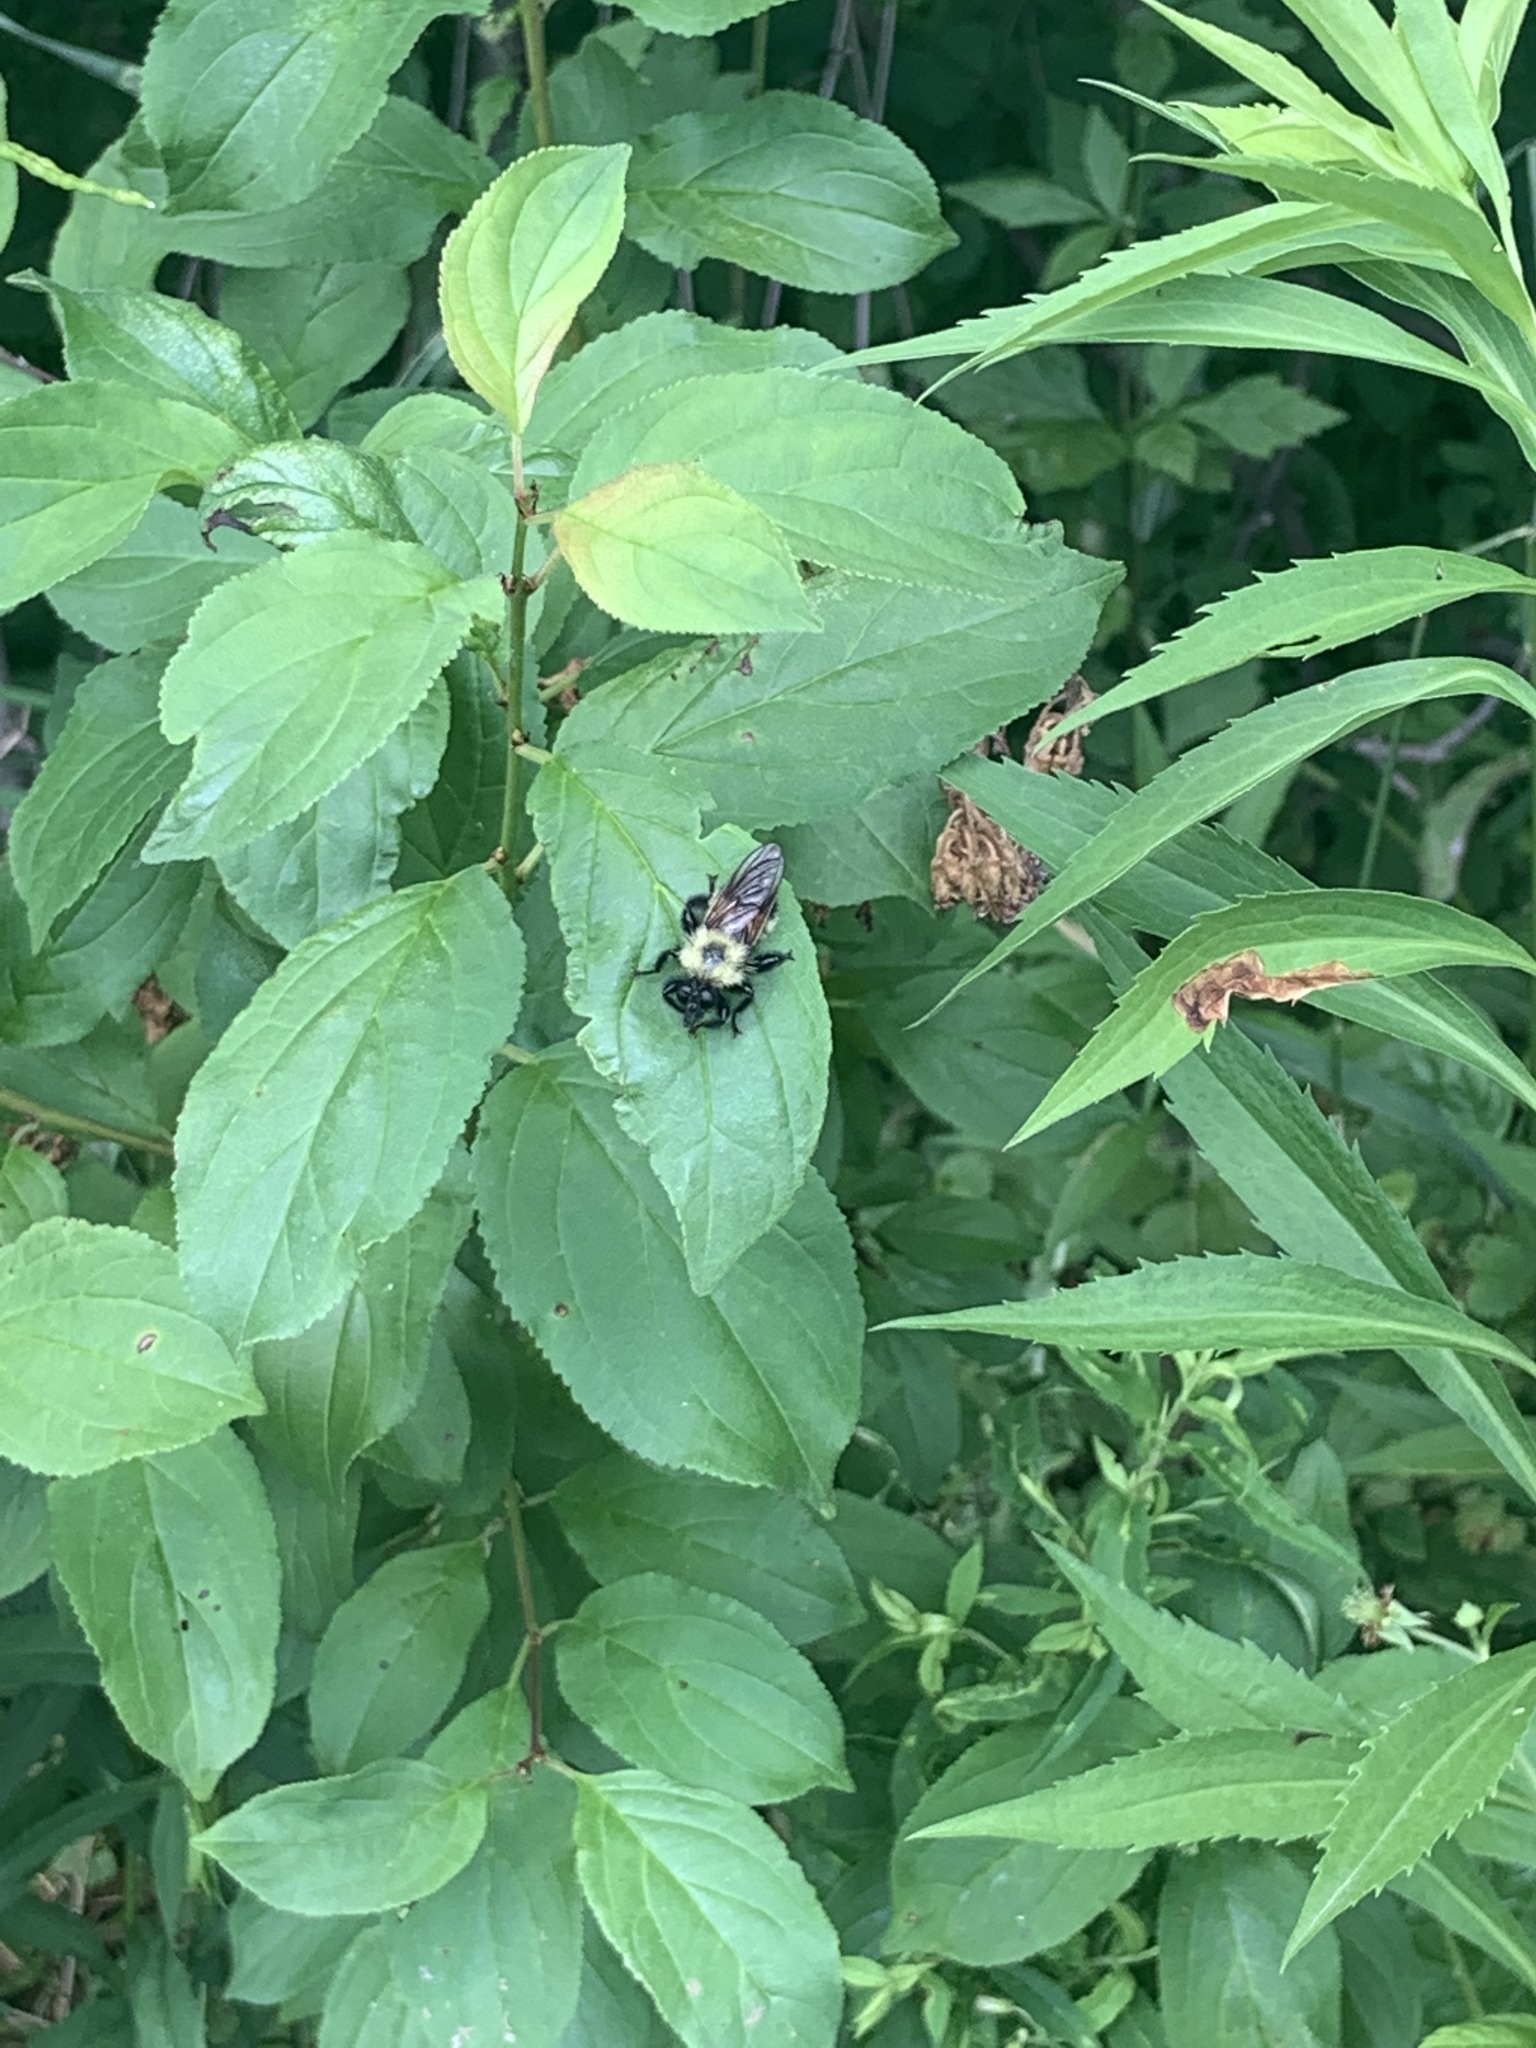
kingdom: Animalia
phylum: Arthropoda
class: Insecta
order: Diptera
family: Asilidae
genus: Laphria
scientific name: Laphria thoracica
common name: Bumble bee mimic robber fly
